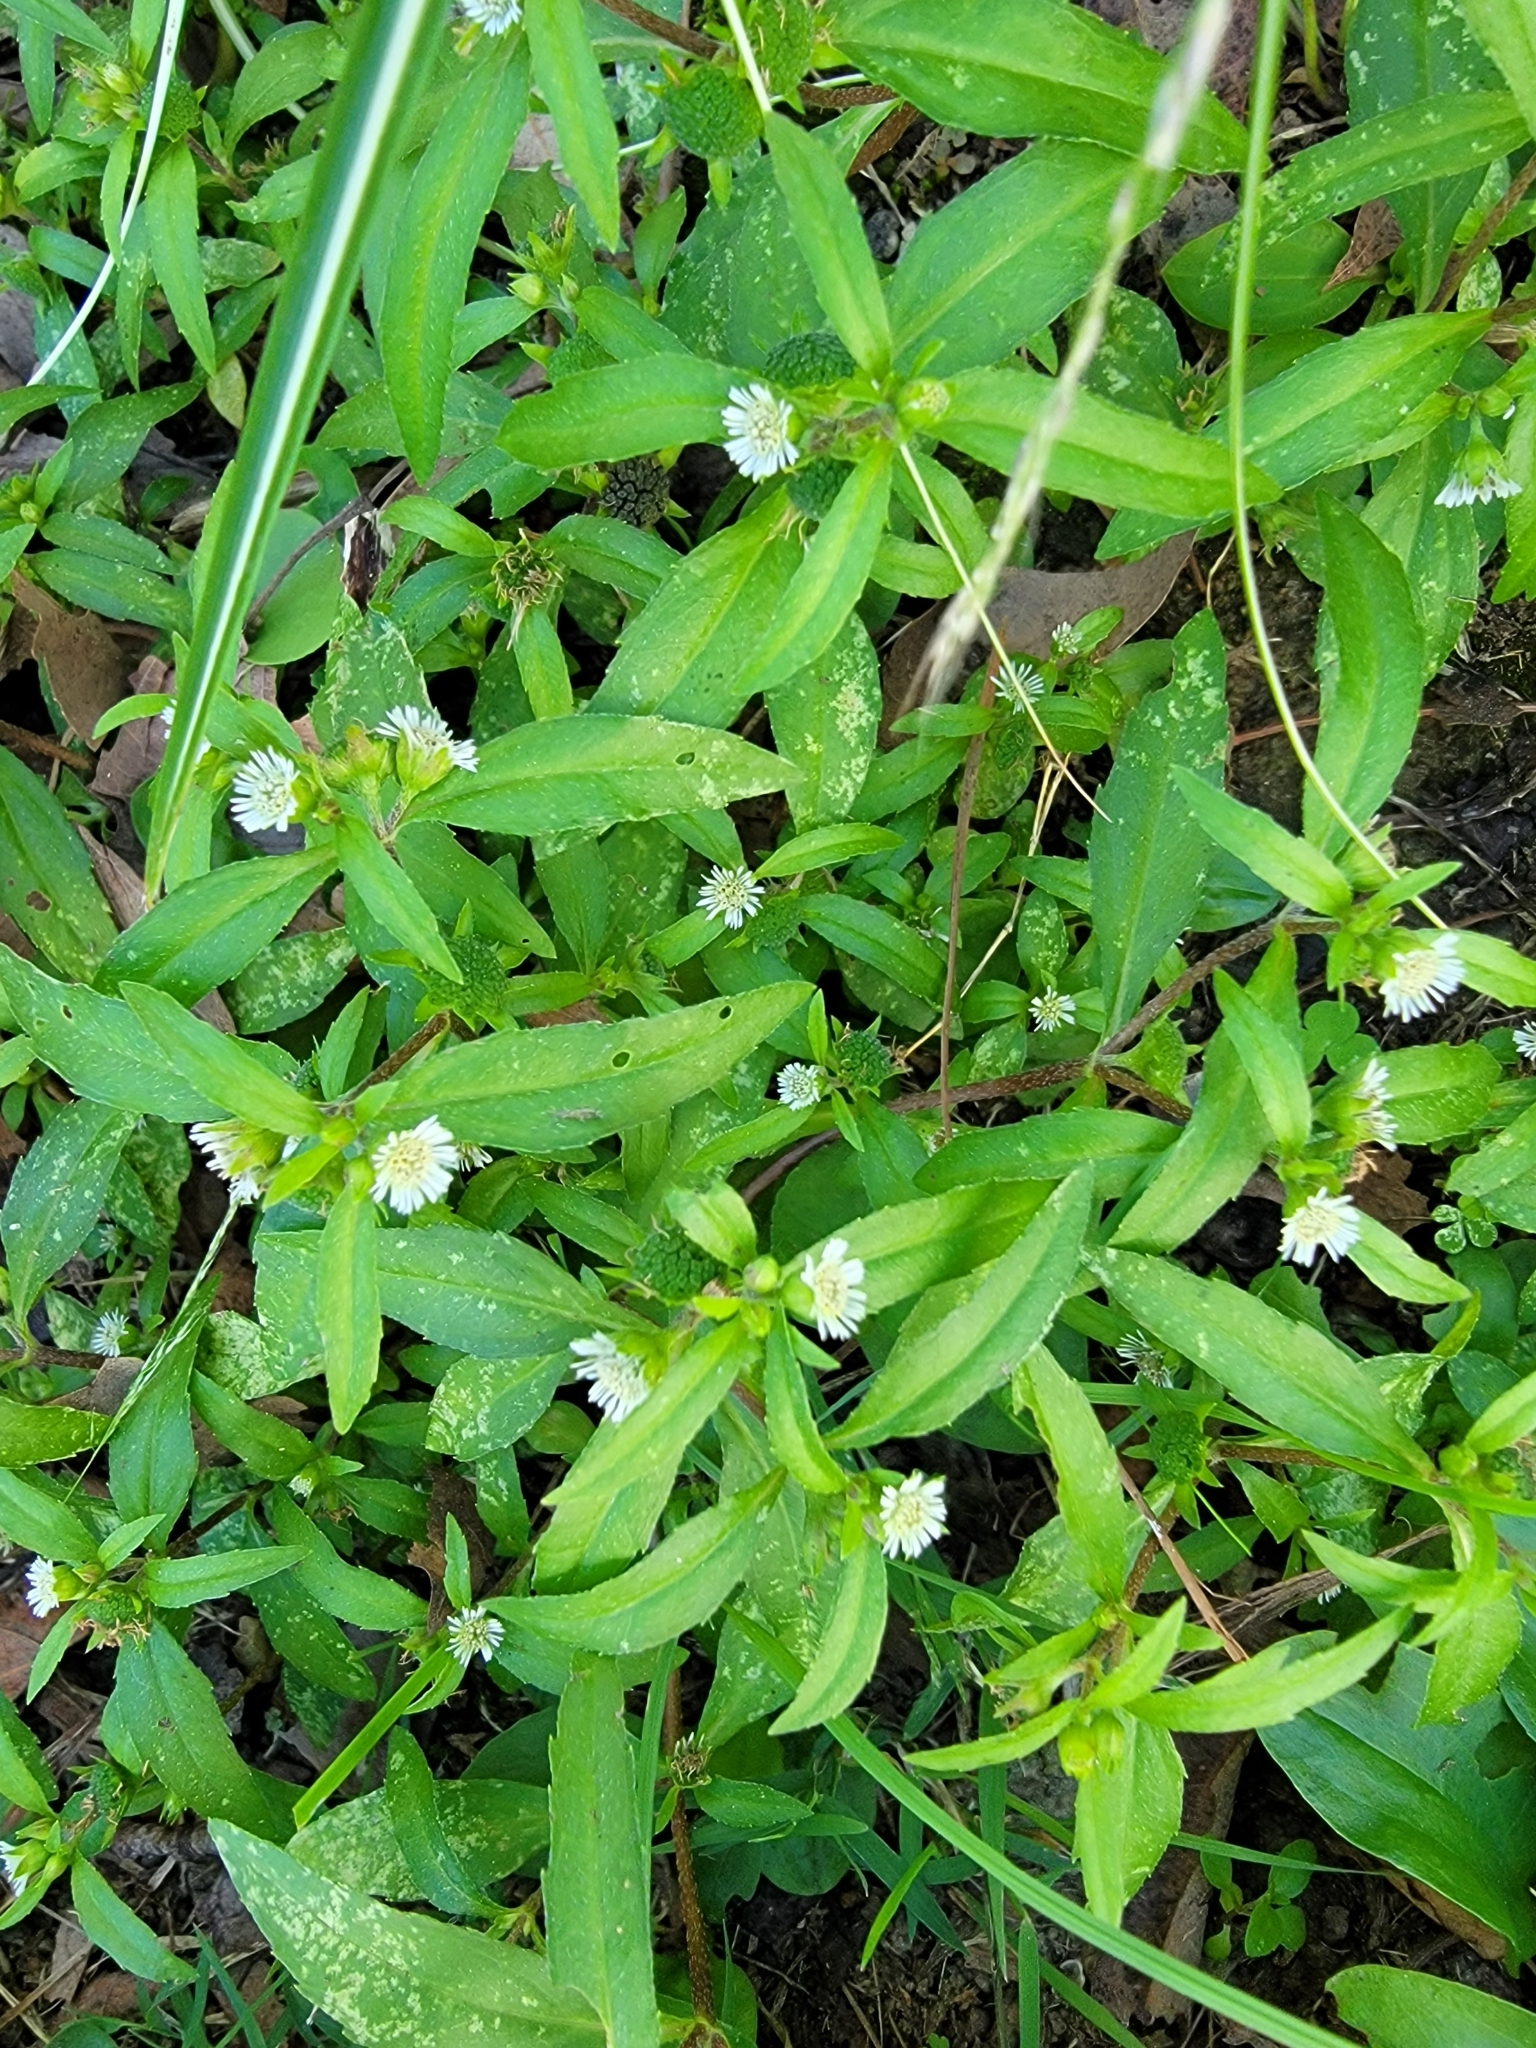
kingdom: Plantae
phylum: Tracheophyta
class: Magnoliopsida
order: Asterales
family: Asteraceae
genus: Eclipta
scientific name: Eclipta prostrata
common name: False daisy
